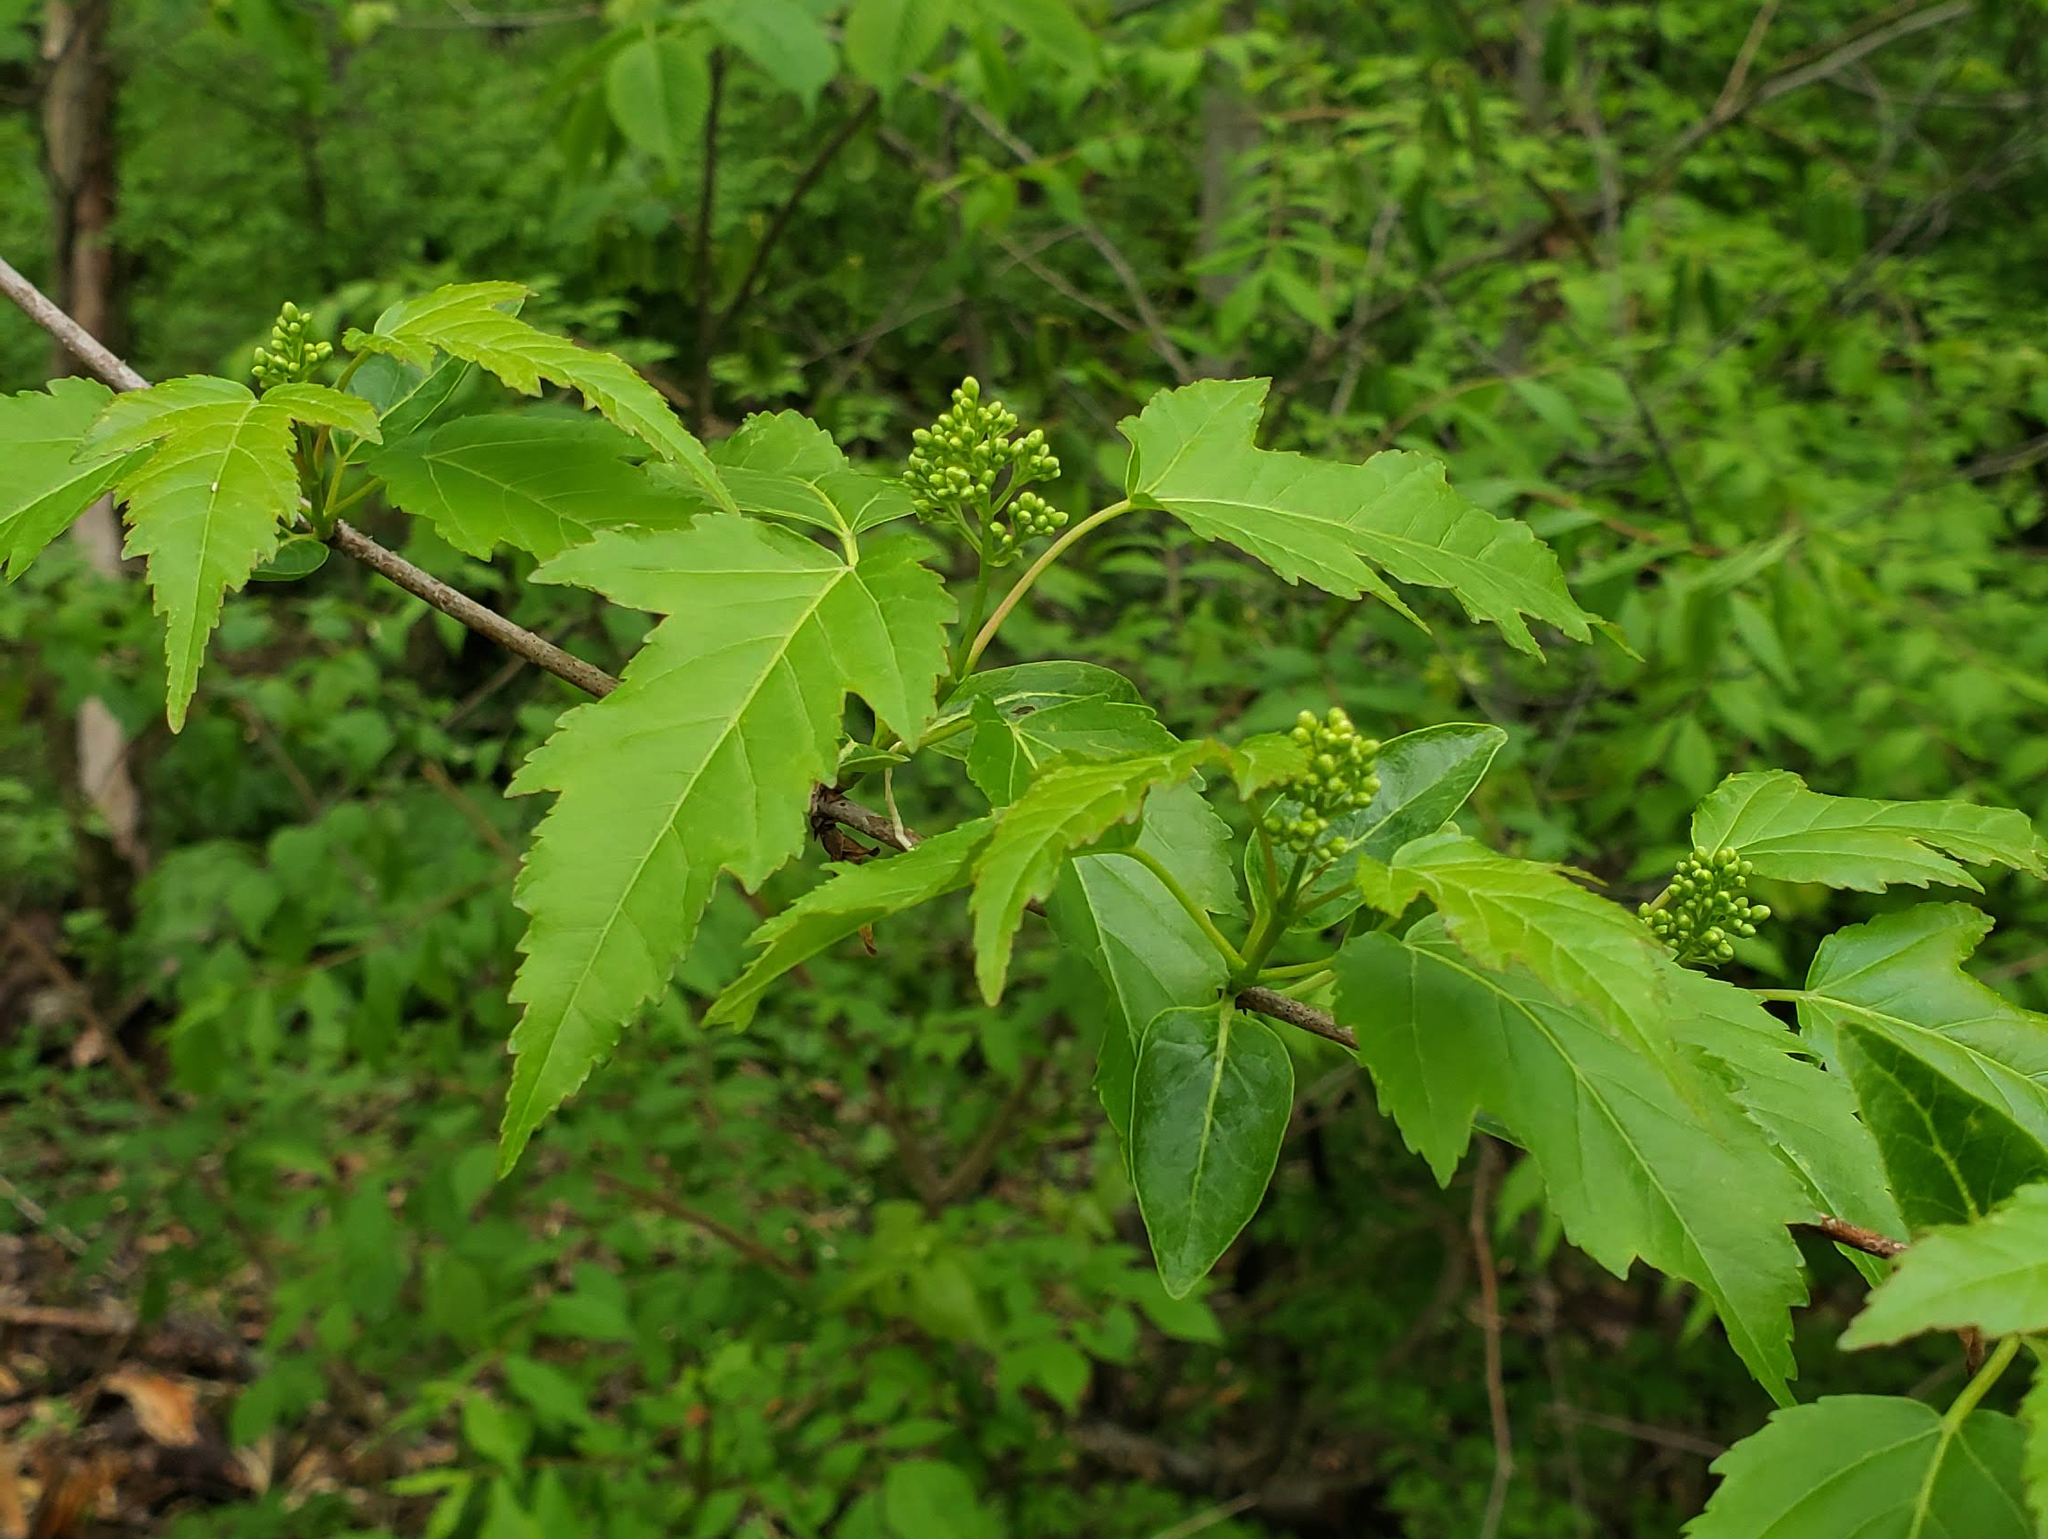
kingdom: Plantae
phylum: Tracheophyta
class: Magnoliopsida
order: Sapindales
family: Sapindaceae
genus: Acer
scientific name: Acer tataricum
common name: Tartar maple
